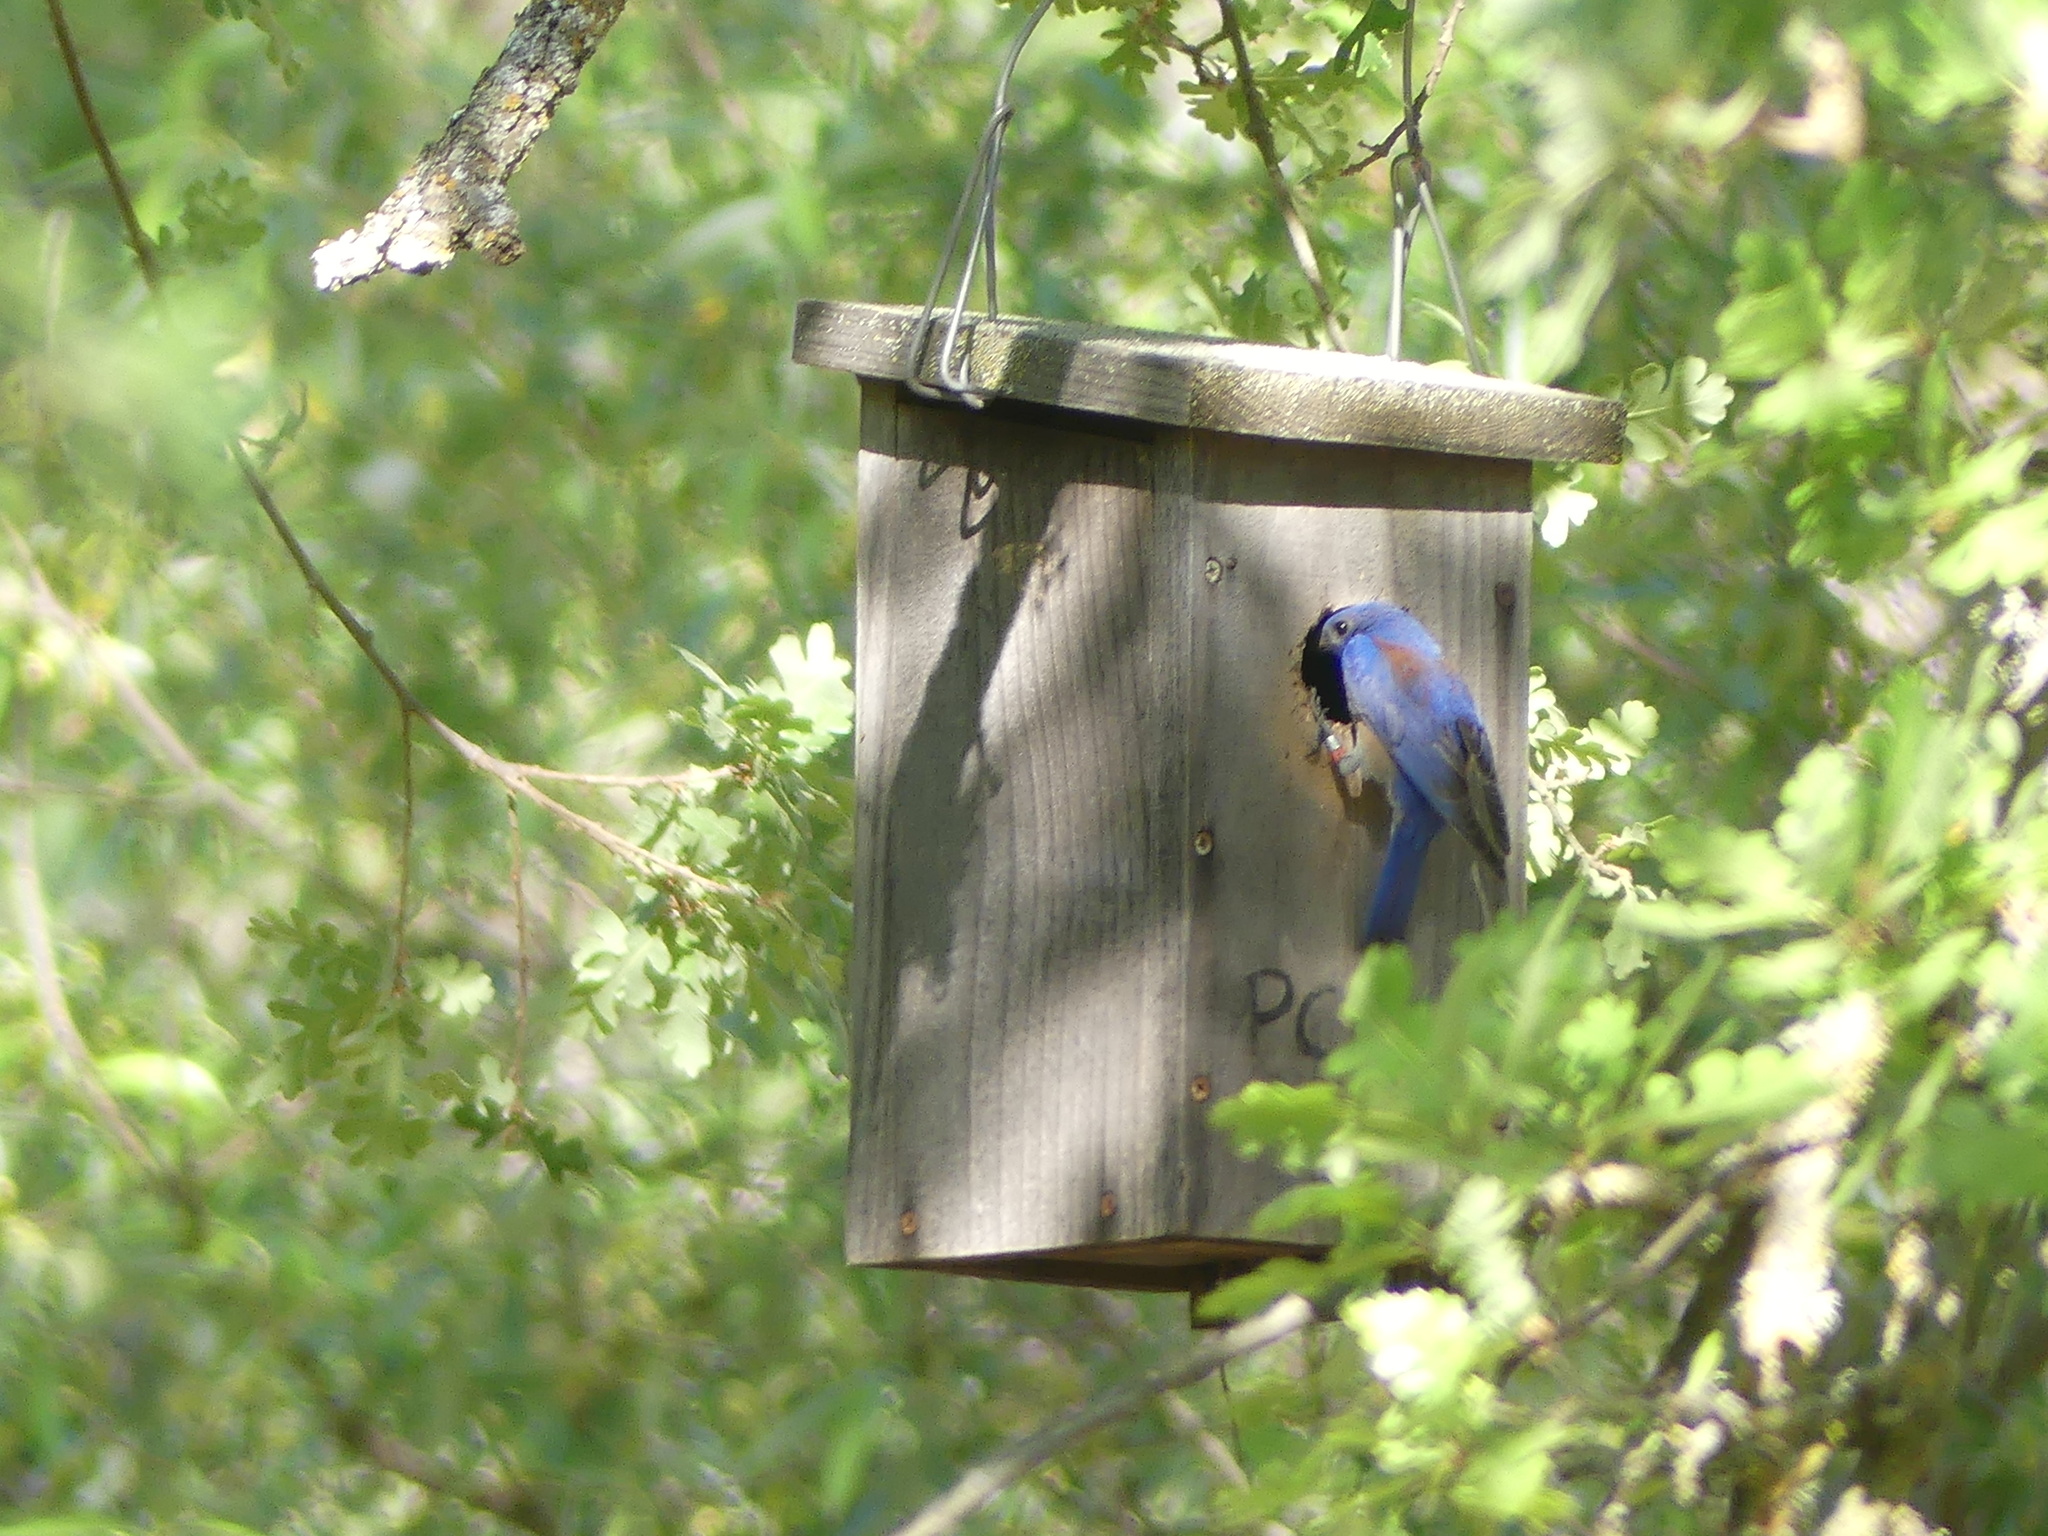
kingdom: Animalia
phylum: Chordata
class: Aves
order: Passeriformes
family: Turdidae
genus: Sialia
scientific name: Sialia mexicana
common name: Western bluebird
